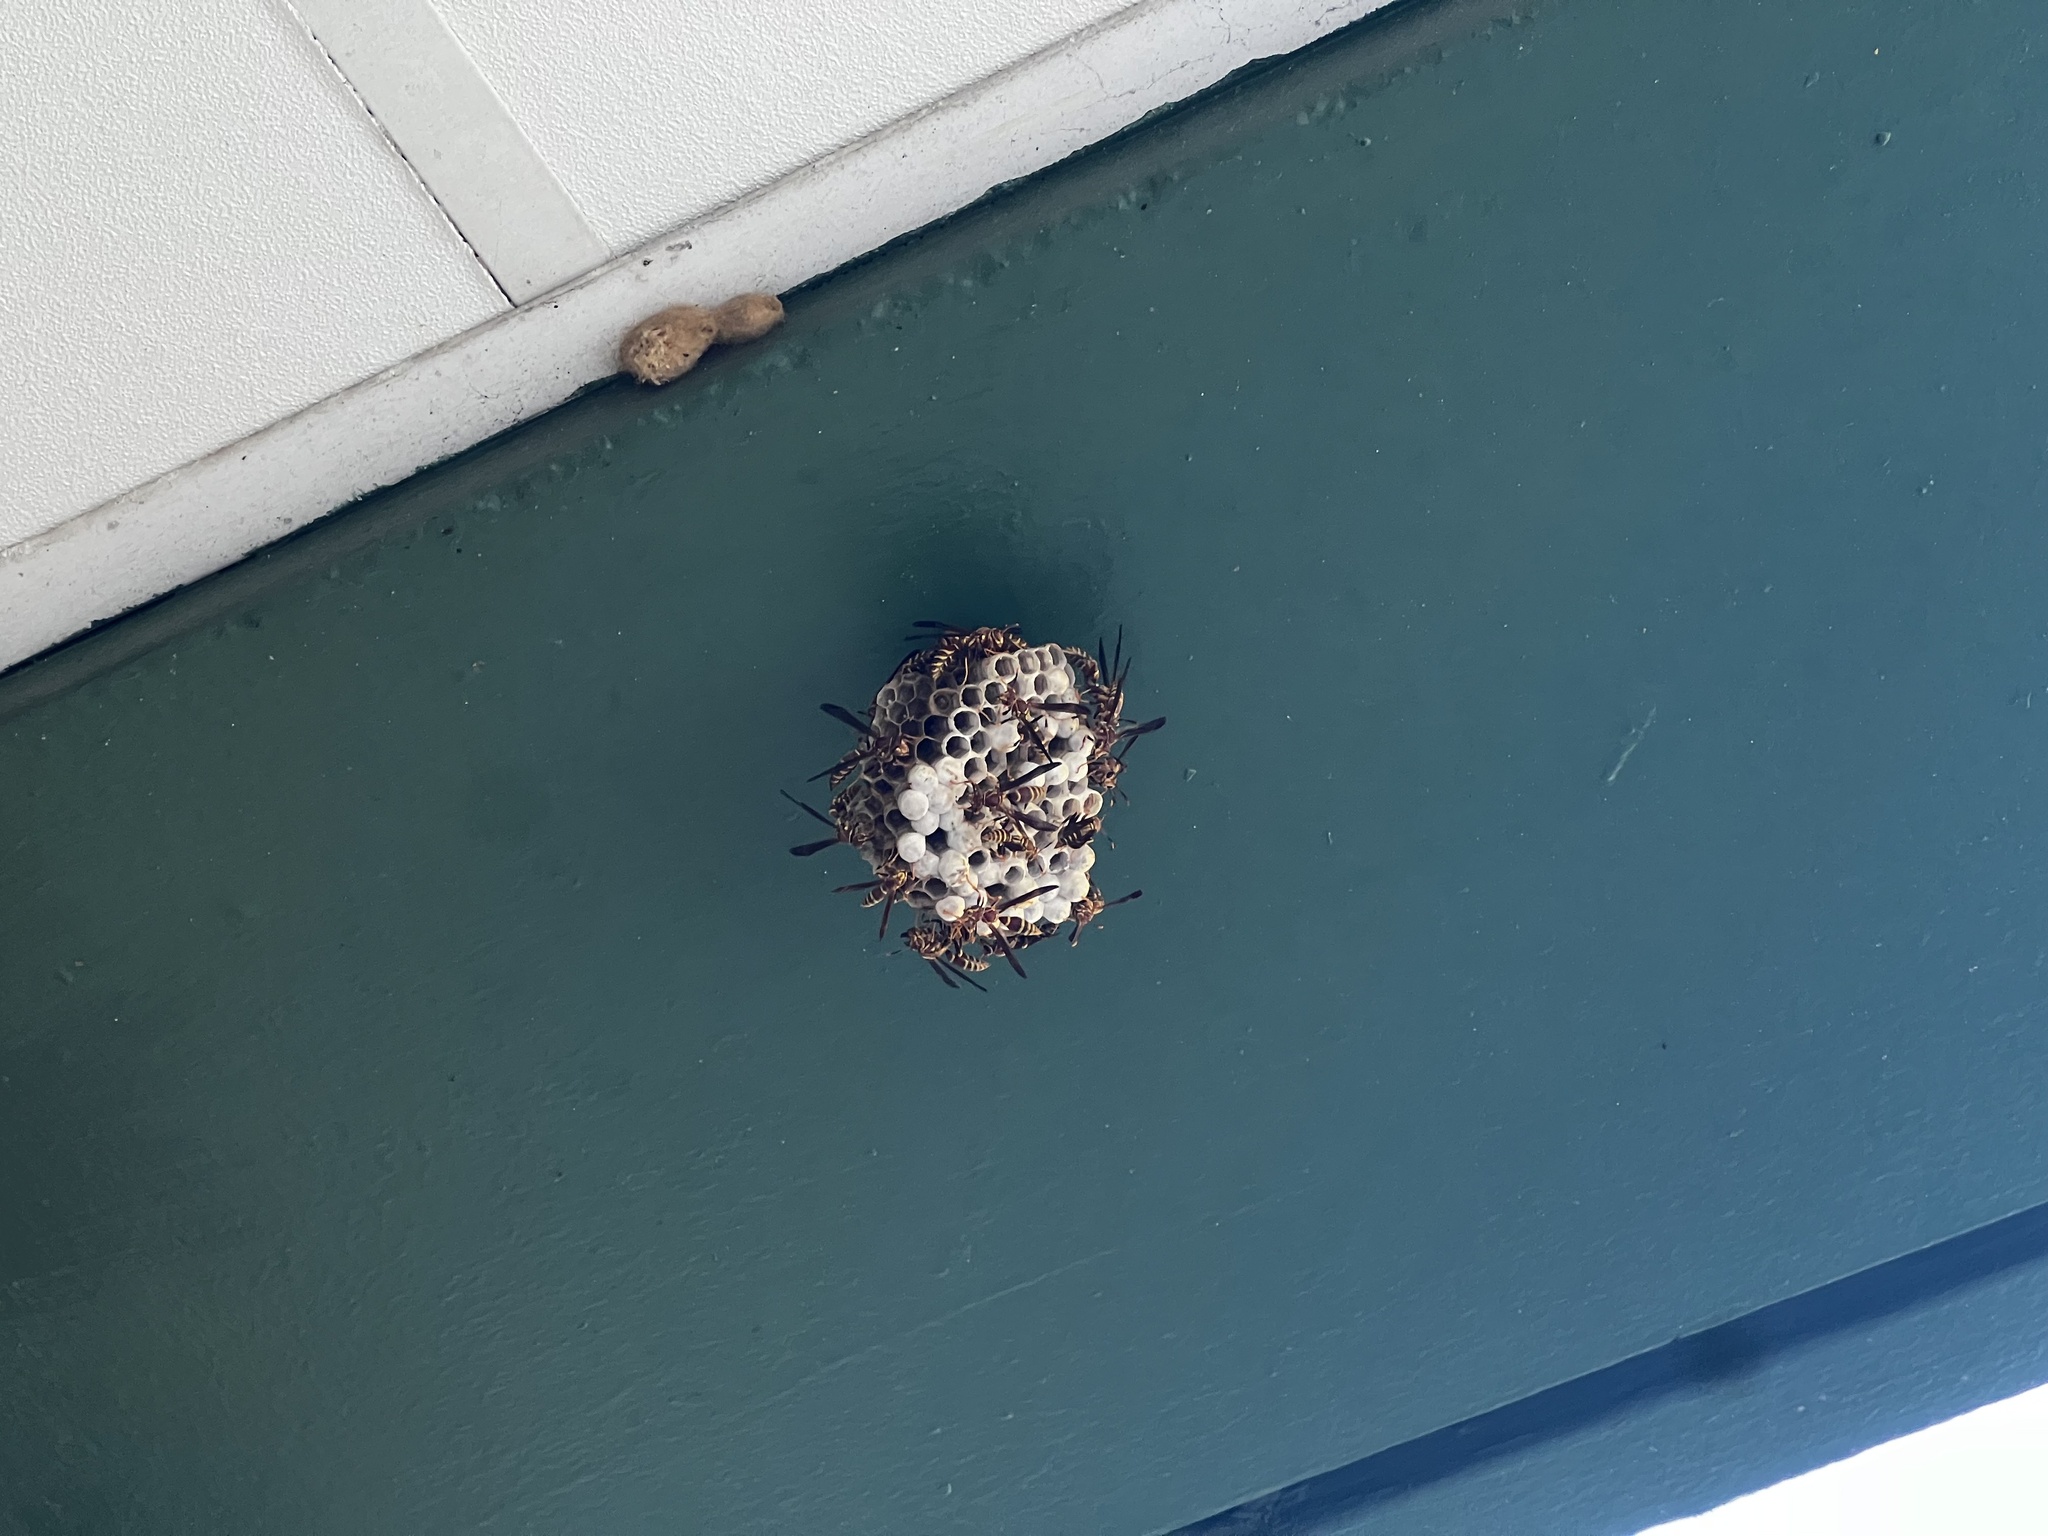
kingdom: Animalia
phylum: Arthropoda
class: Insecta
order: Hymenoptera
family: Eumenidae
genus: Polistes
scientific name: Polistes exclamans
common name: Paper wasp
